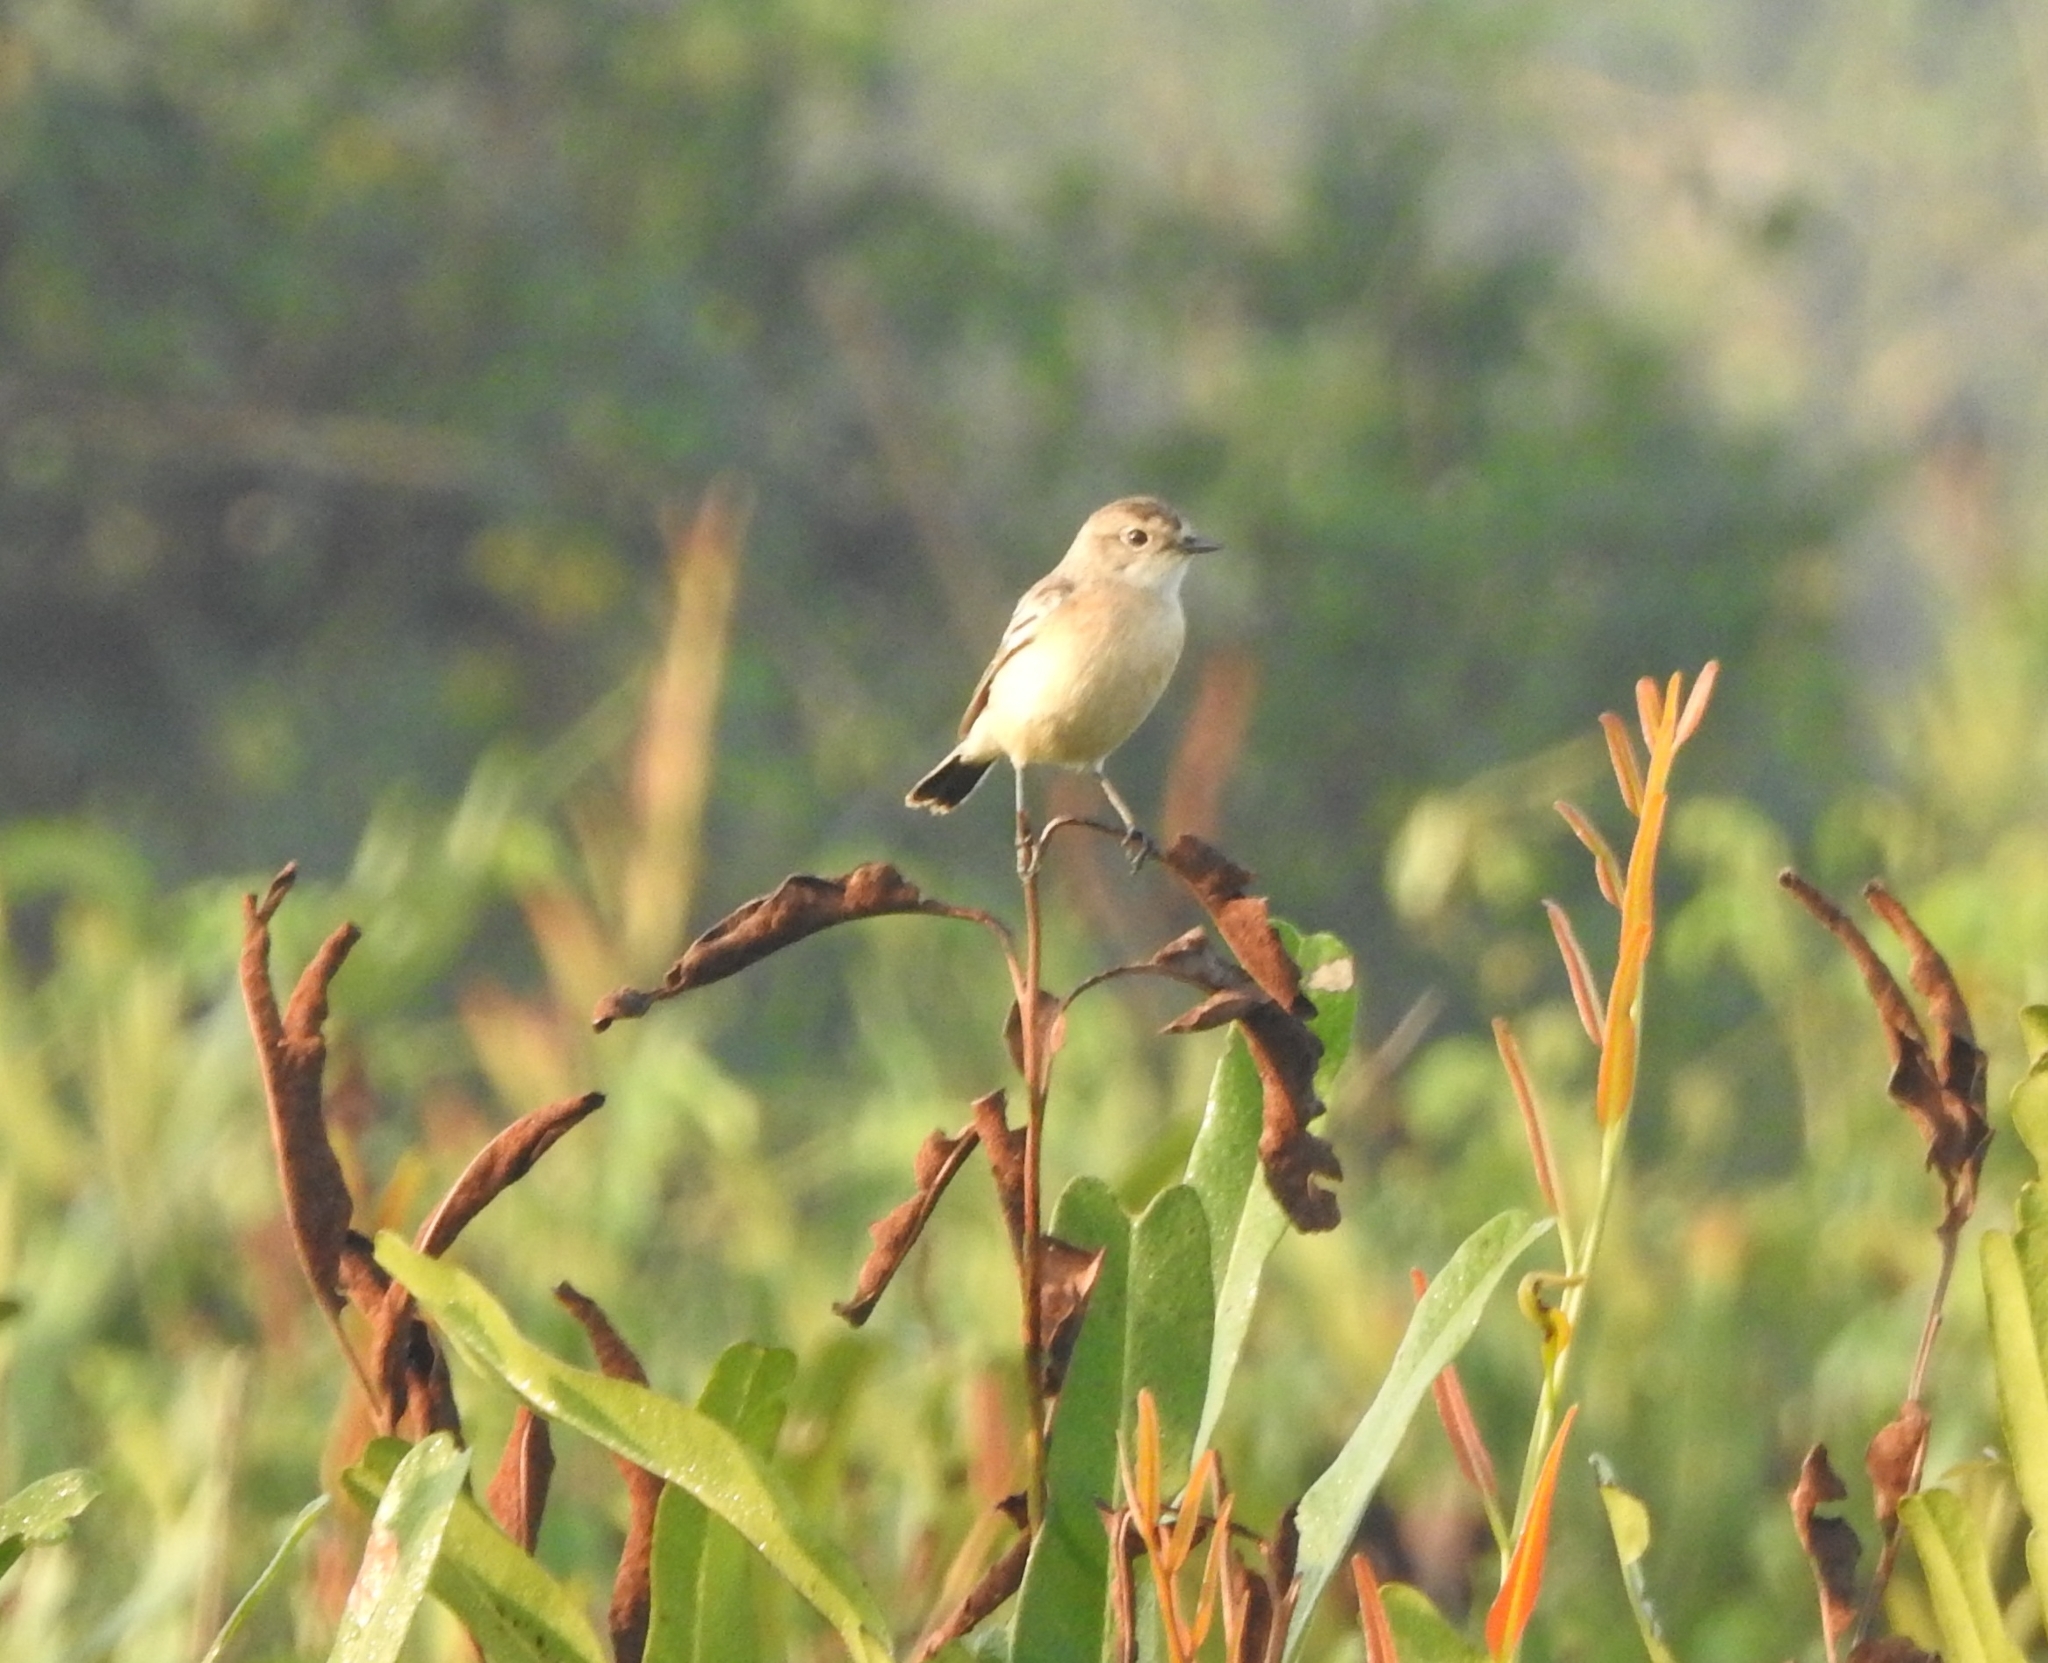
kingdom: Animalia
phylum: Chordata
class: Aves
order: Passeriformes
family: Muscicapidae
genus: Saxicola
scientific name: Saxicola maurus
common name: Siberian stonechat
